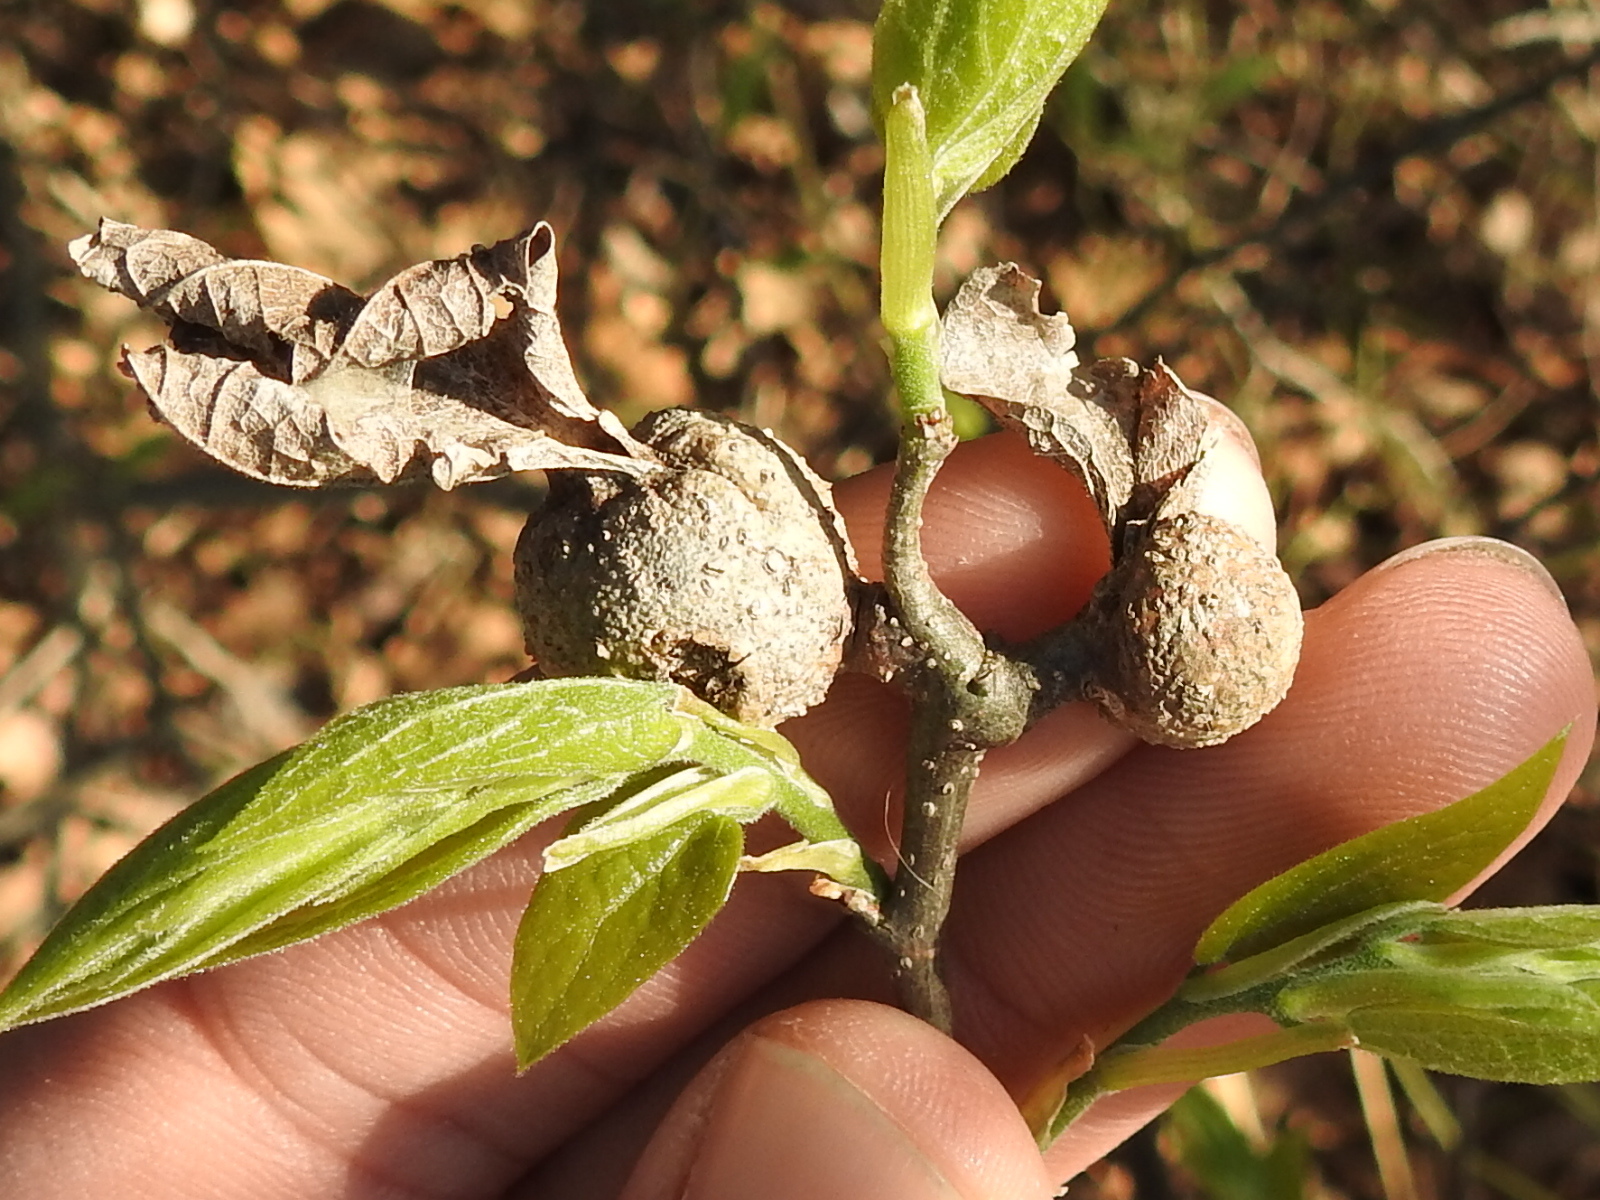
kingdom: Animalia
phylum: Arthropoda
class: Insecta
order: Hemiptera
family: Aphalaridae
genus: Pachypsylla
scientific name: Pachypsylla venusta
